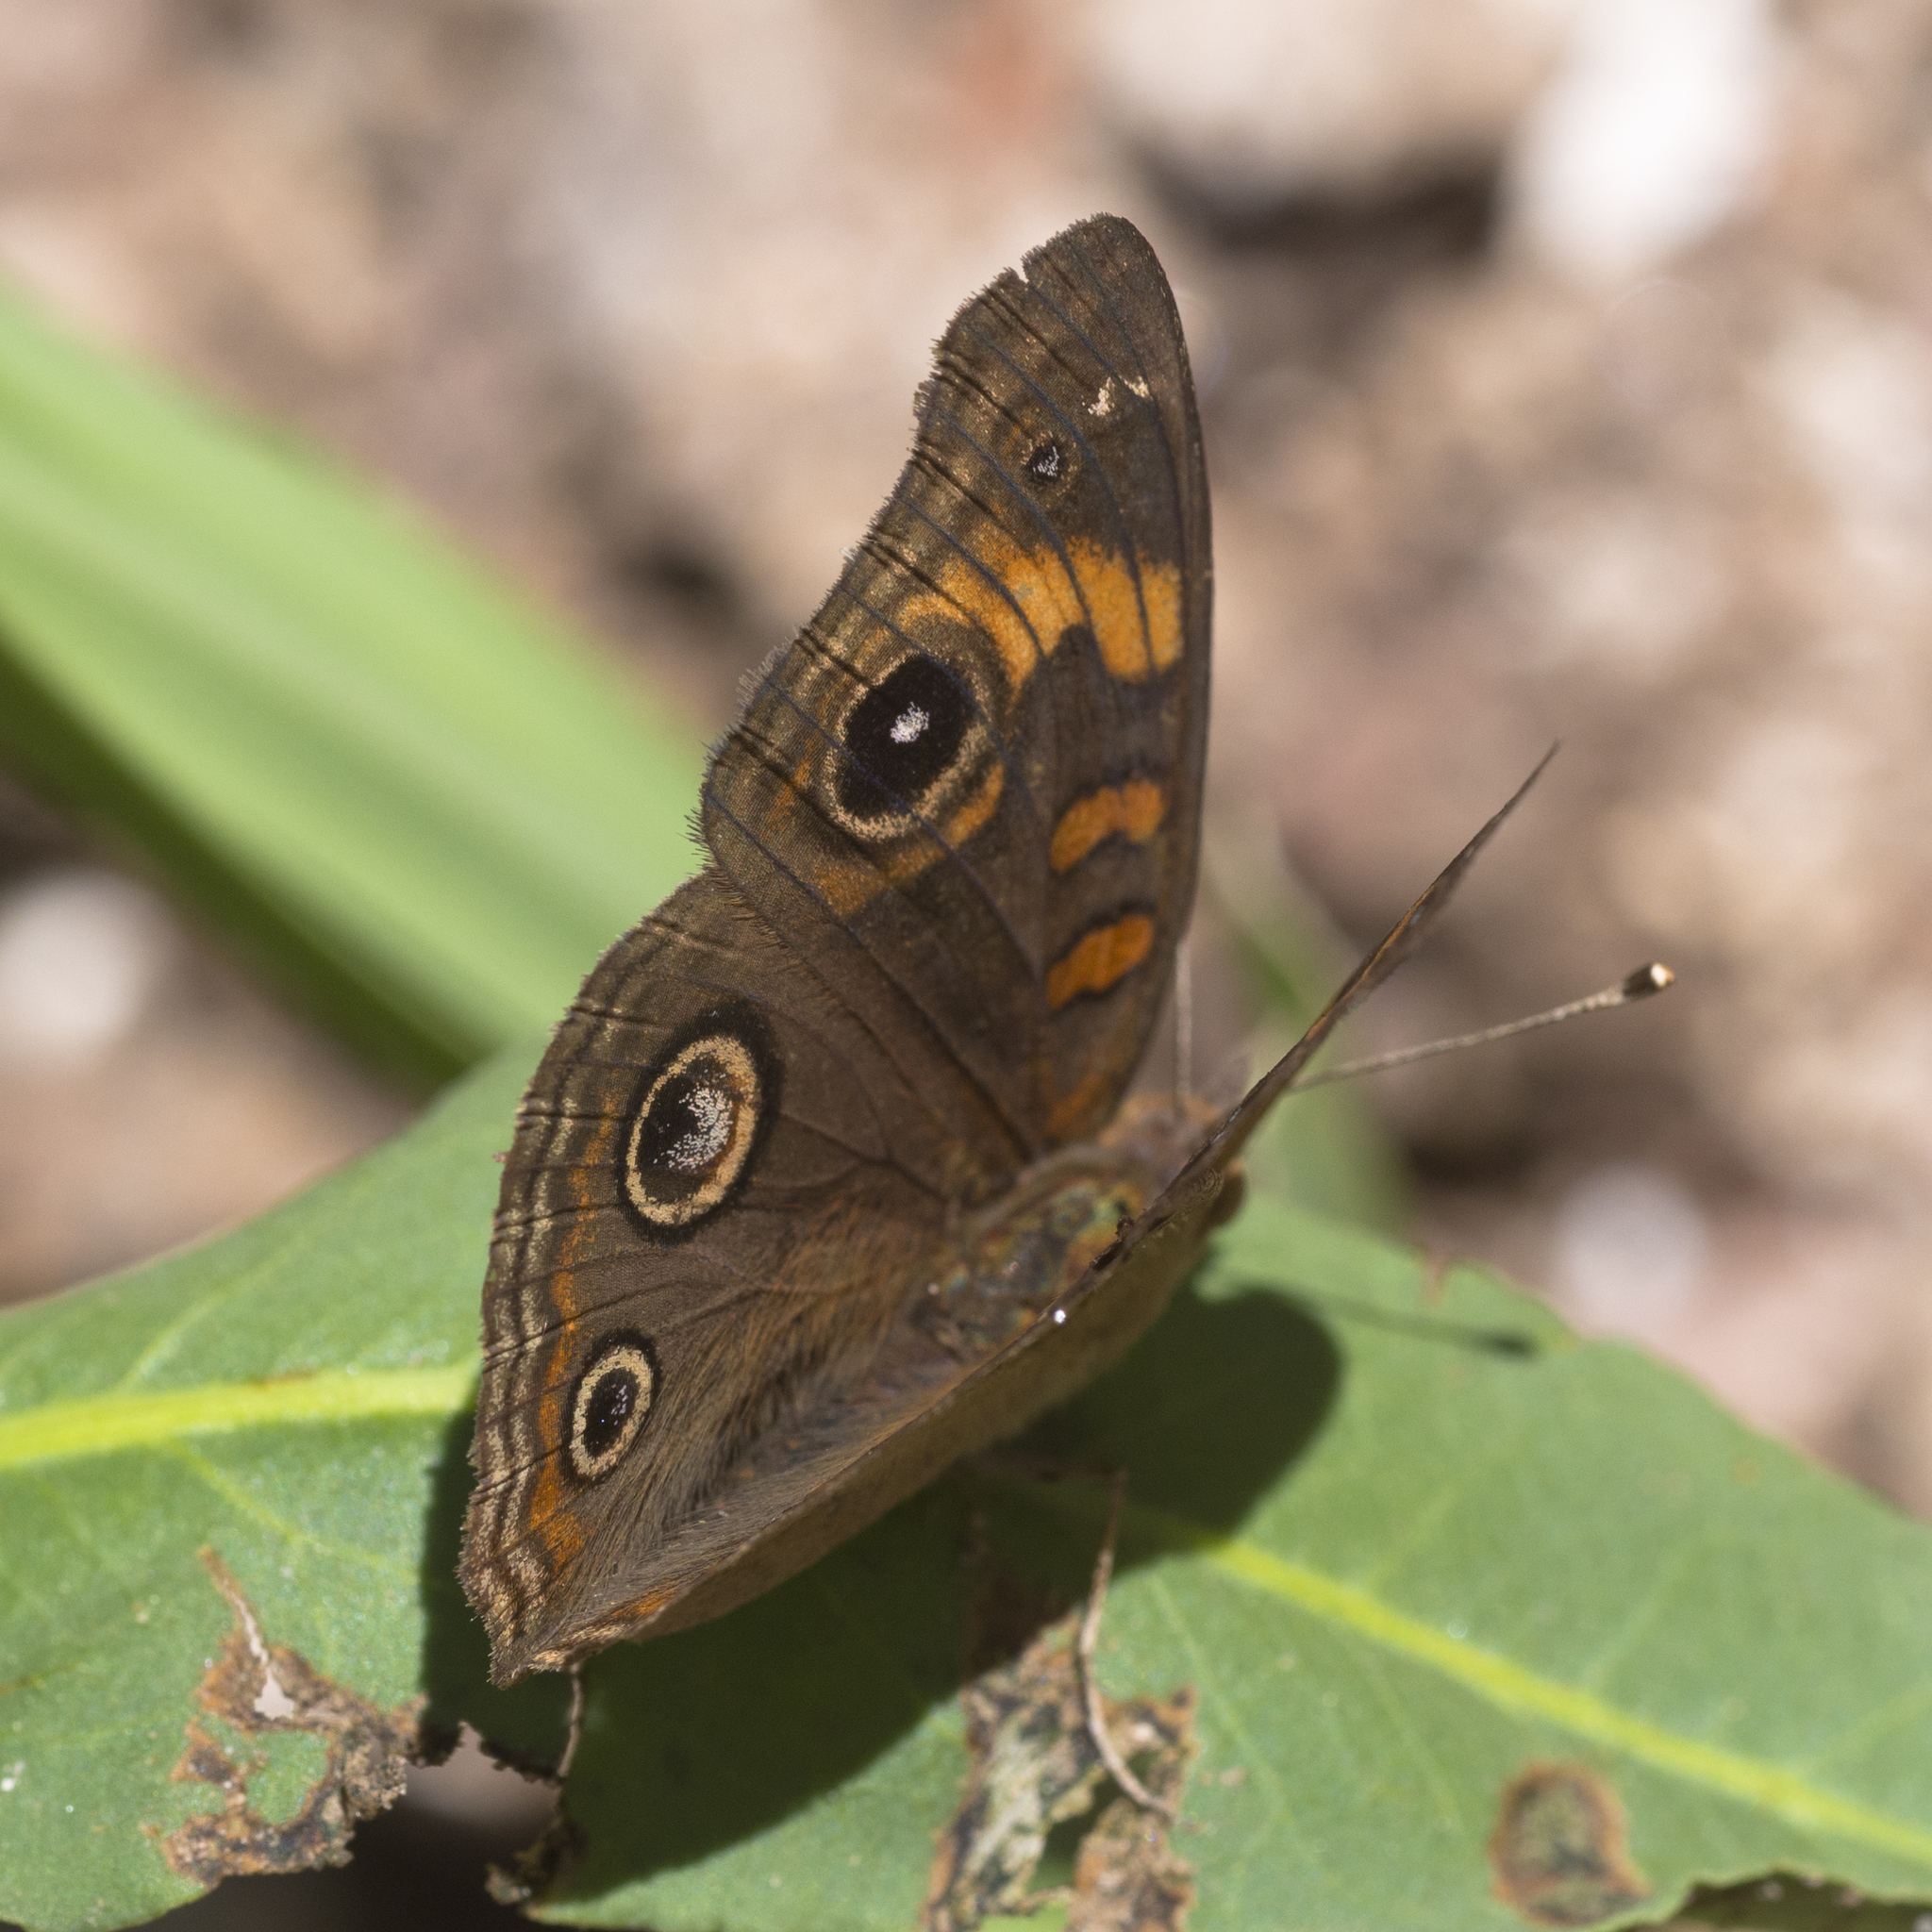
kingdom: Animalia
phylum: Arthropoda
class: Insecta
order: Lepidoptera
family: Nymphalidae
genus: Junonia
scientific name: Junonia grisea
